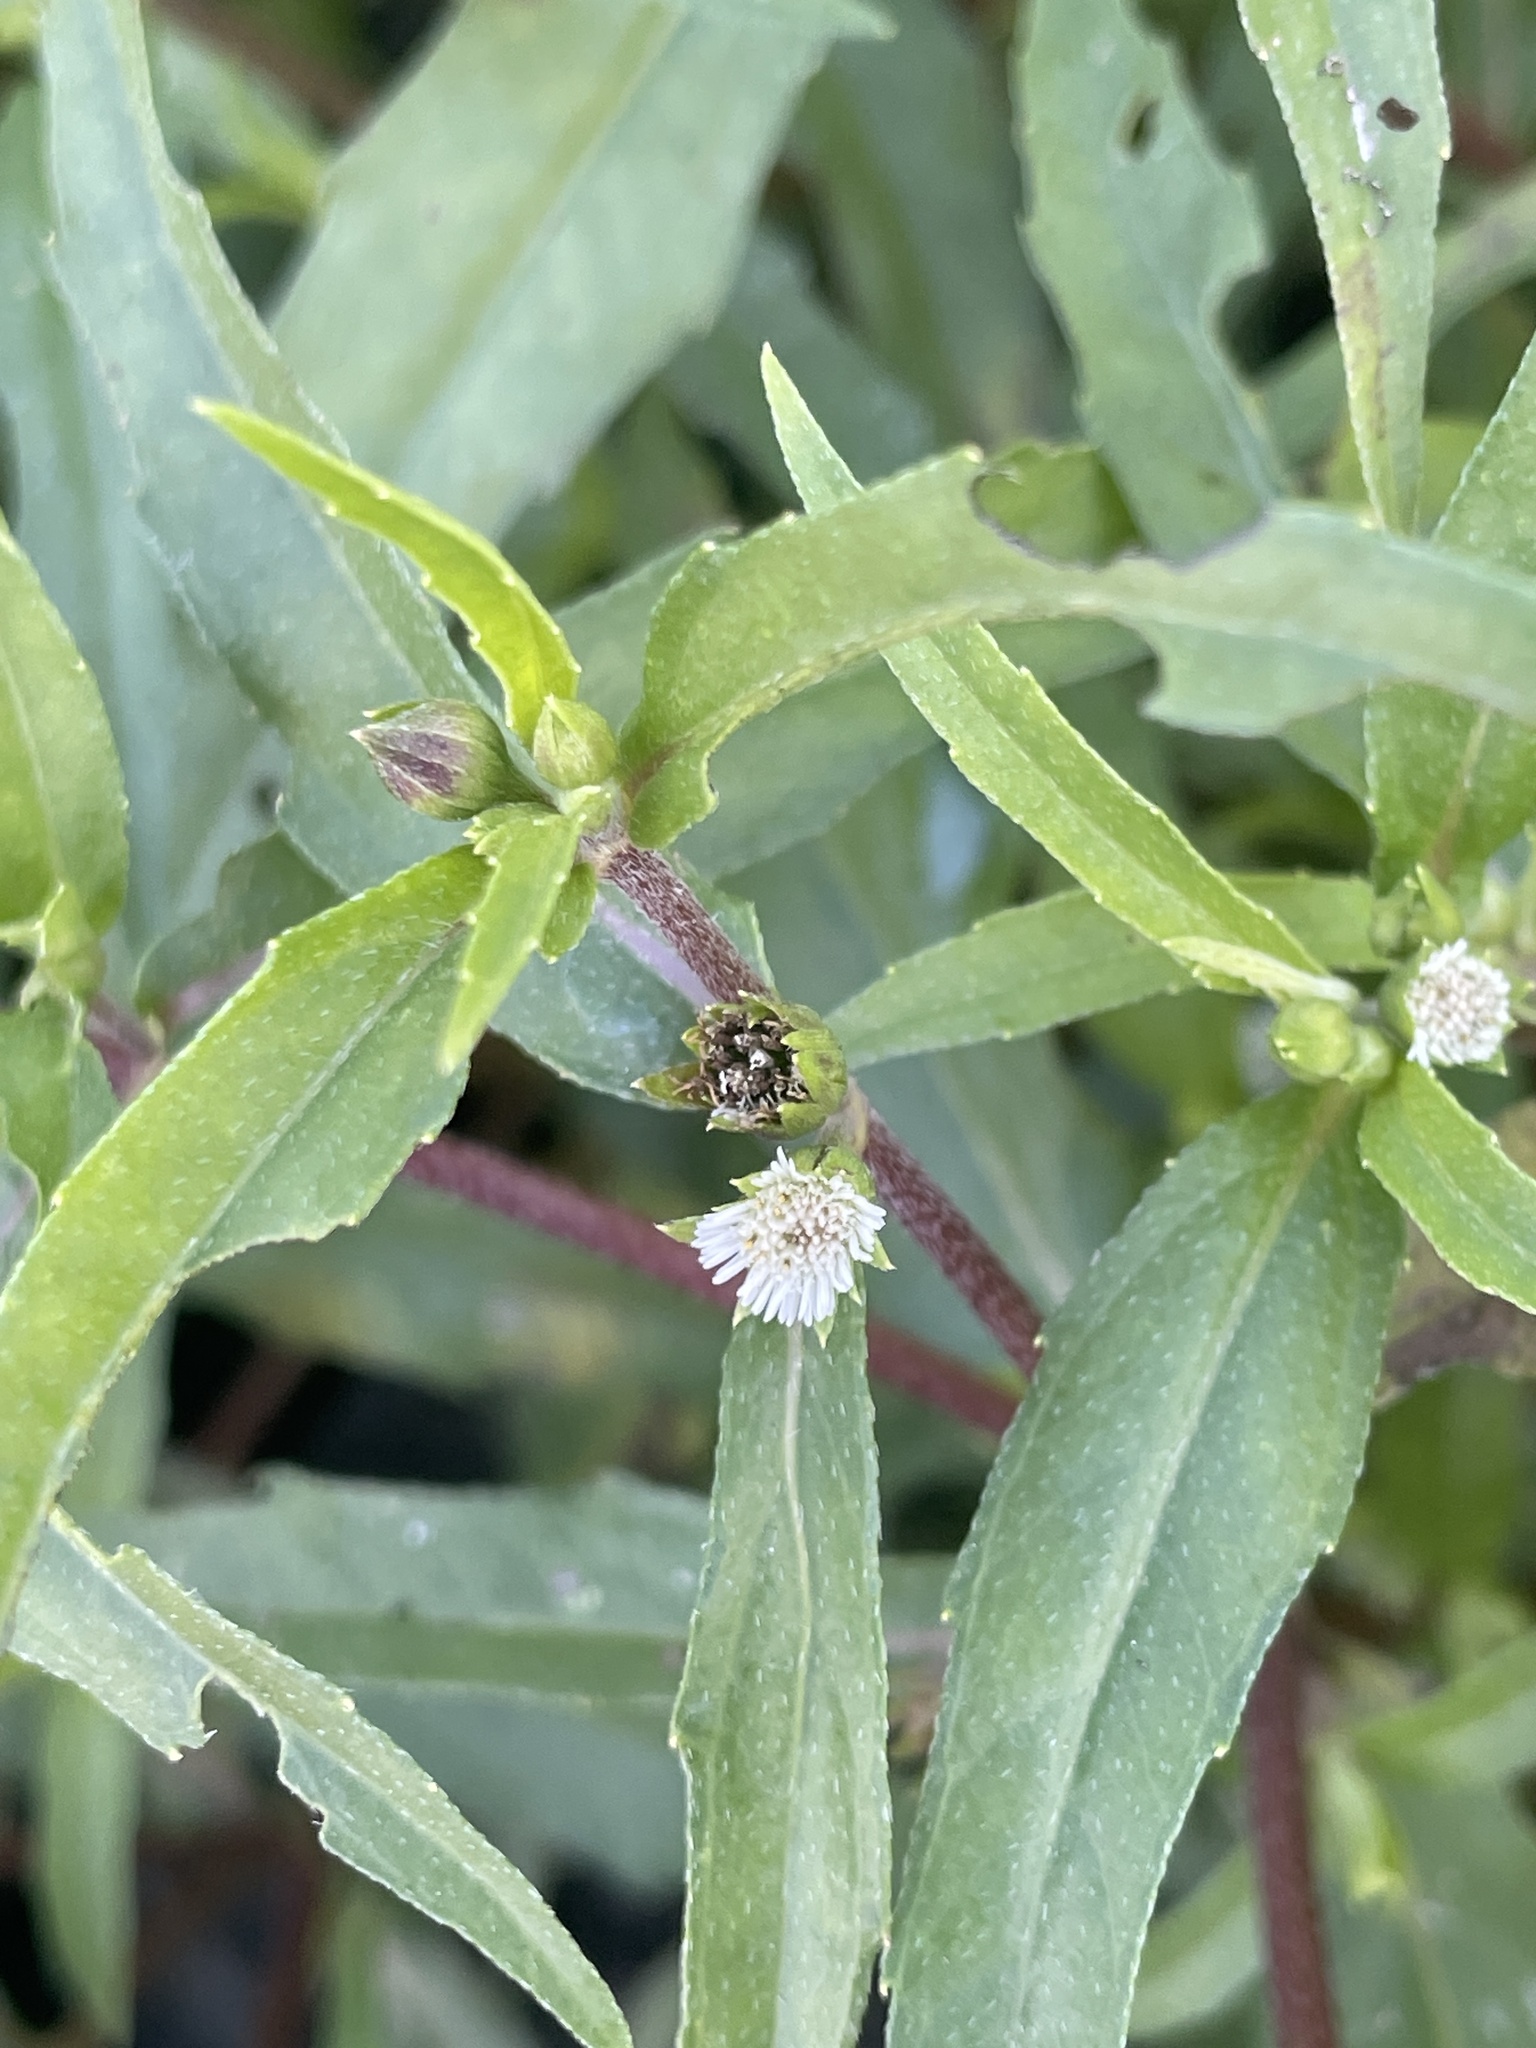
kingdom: Plantae
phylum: Tracheophyta
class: Magnoliopsida
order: Asterales
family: Asteraceae
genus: Eclipta
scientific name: Eclipta prostrata
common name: False daisy
